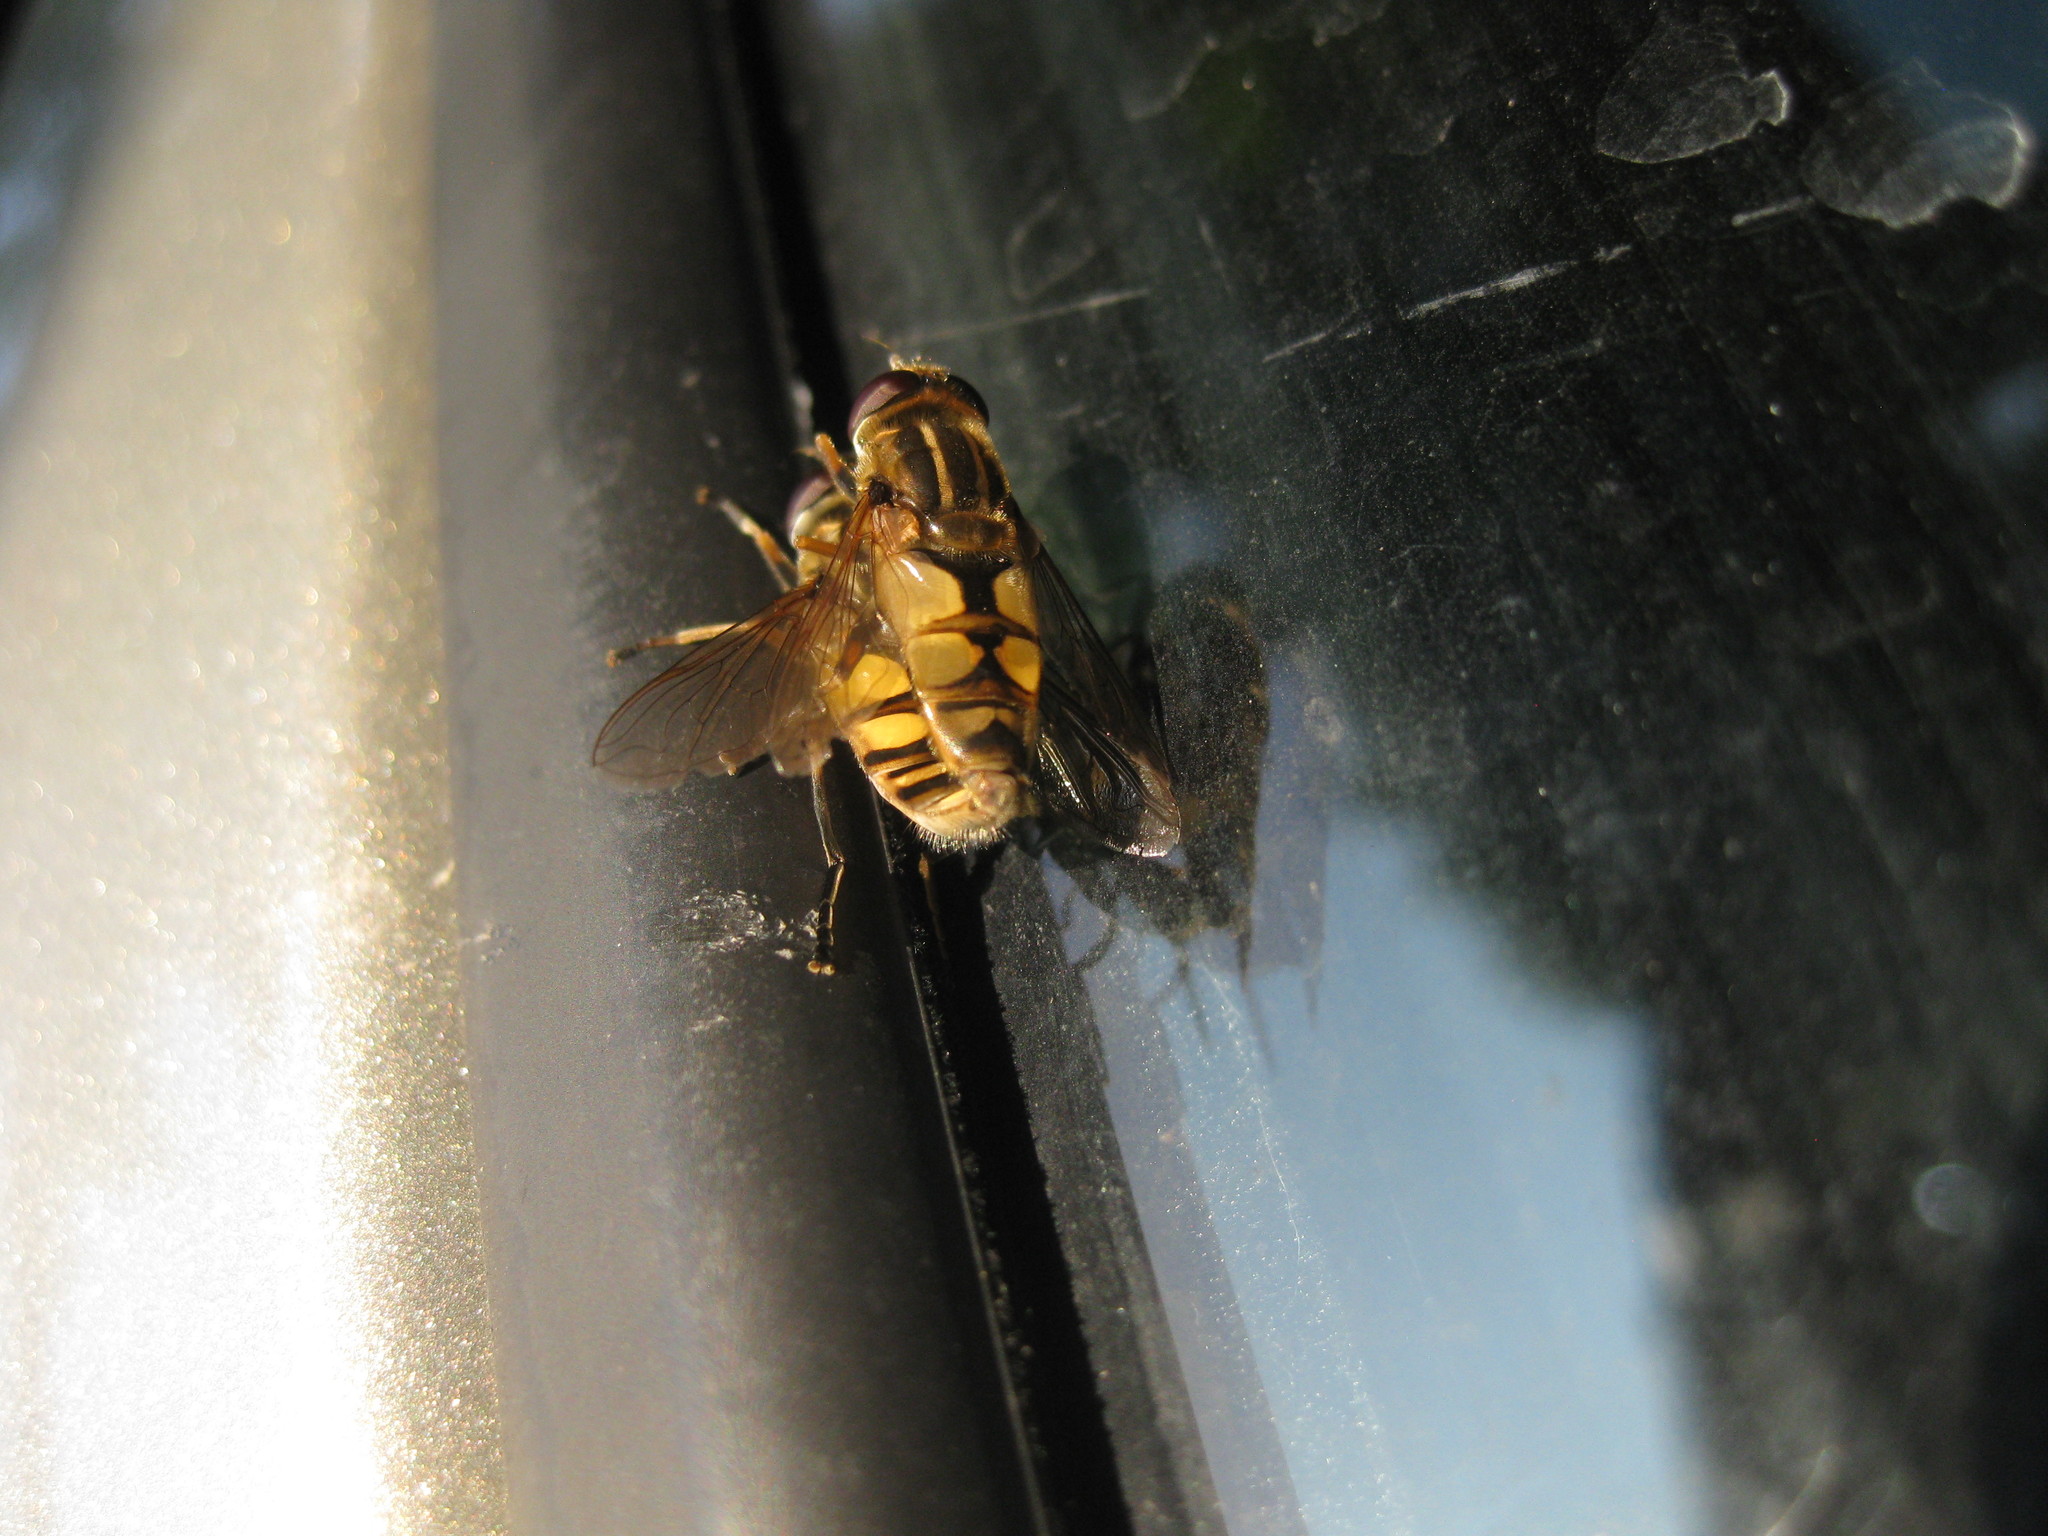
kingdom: Animalia
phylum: Arthropoda
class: Insecta
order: Diptera
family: Syrphidae
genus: Helophilus
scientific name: Helophilus hybridus
